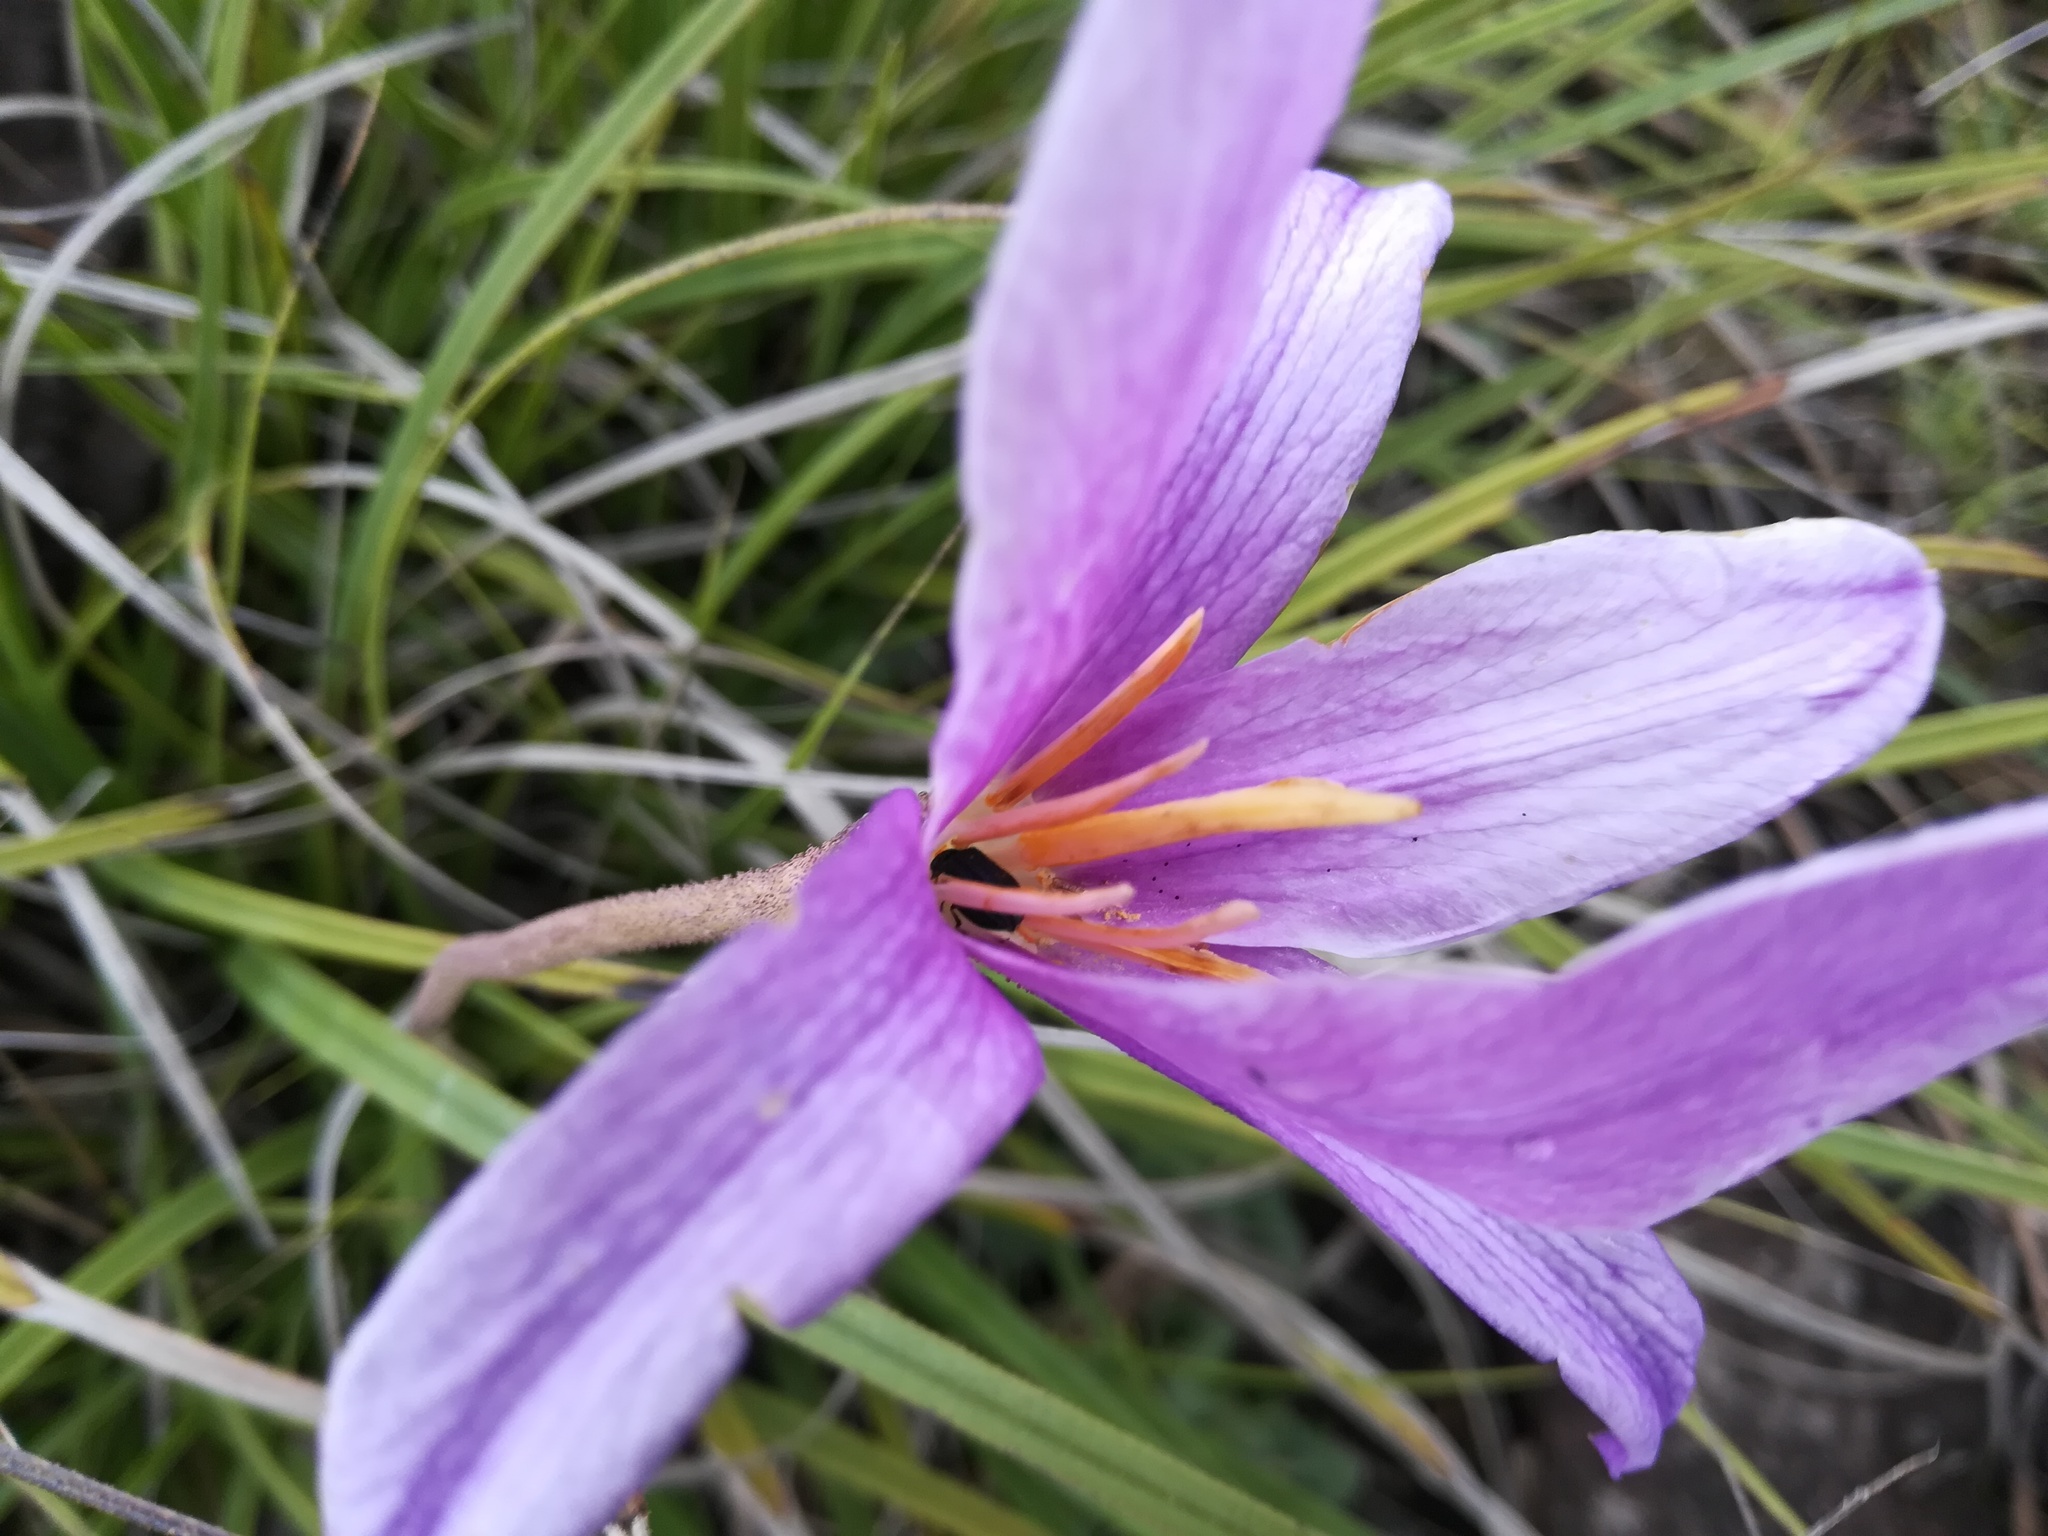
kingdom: Plantae
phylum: Tracheophyta
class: Liliopsida
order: Pandanales
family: Velloziaceae
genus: Xerophyta
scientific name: Xerophyta viscosa
